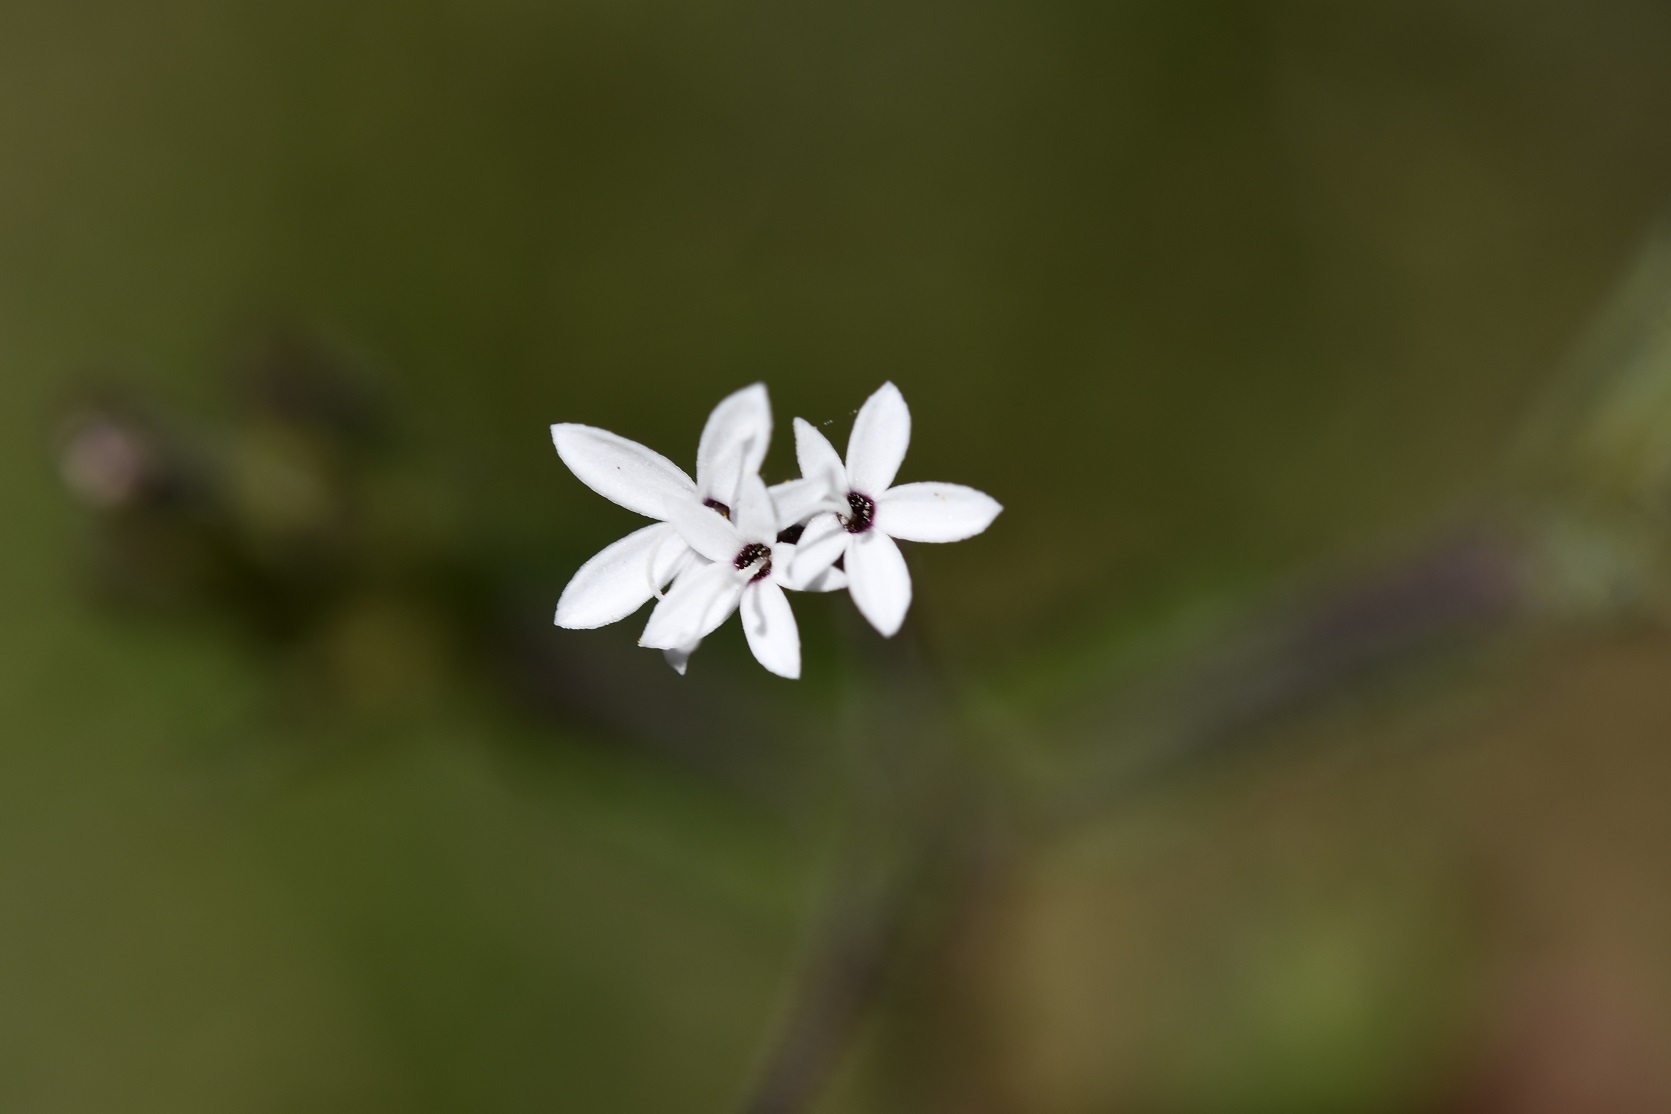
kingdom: Plantae
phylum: Tracheophyta
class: Magnoliopsida
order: Asterales
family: Asteraceae
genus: Stevia
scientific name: Stevia elatior
